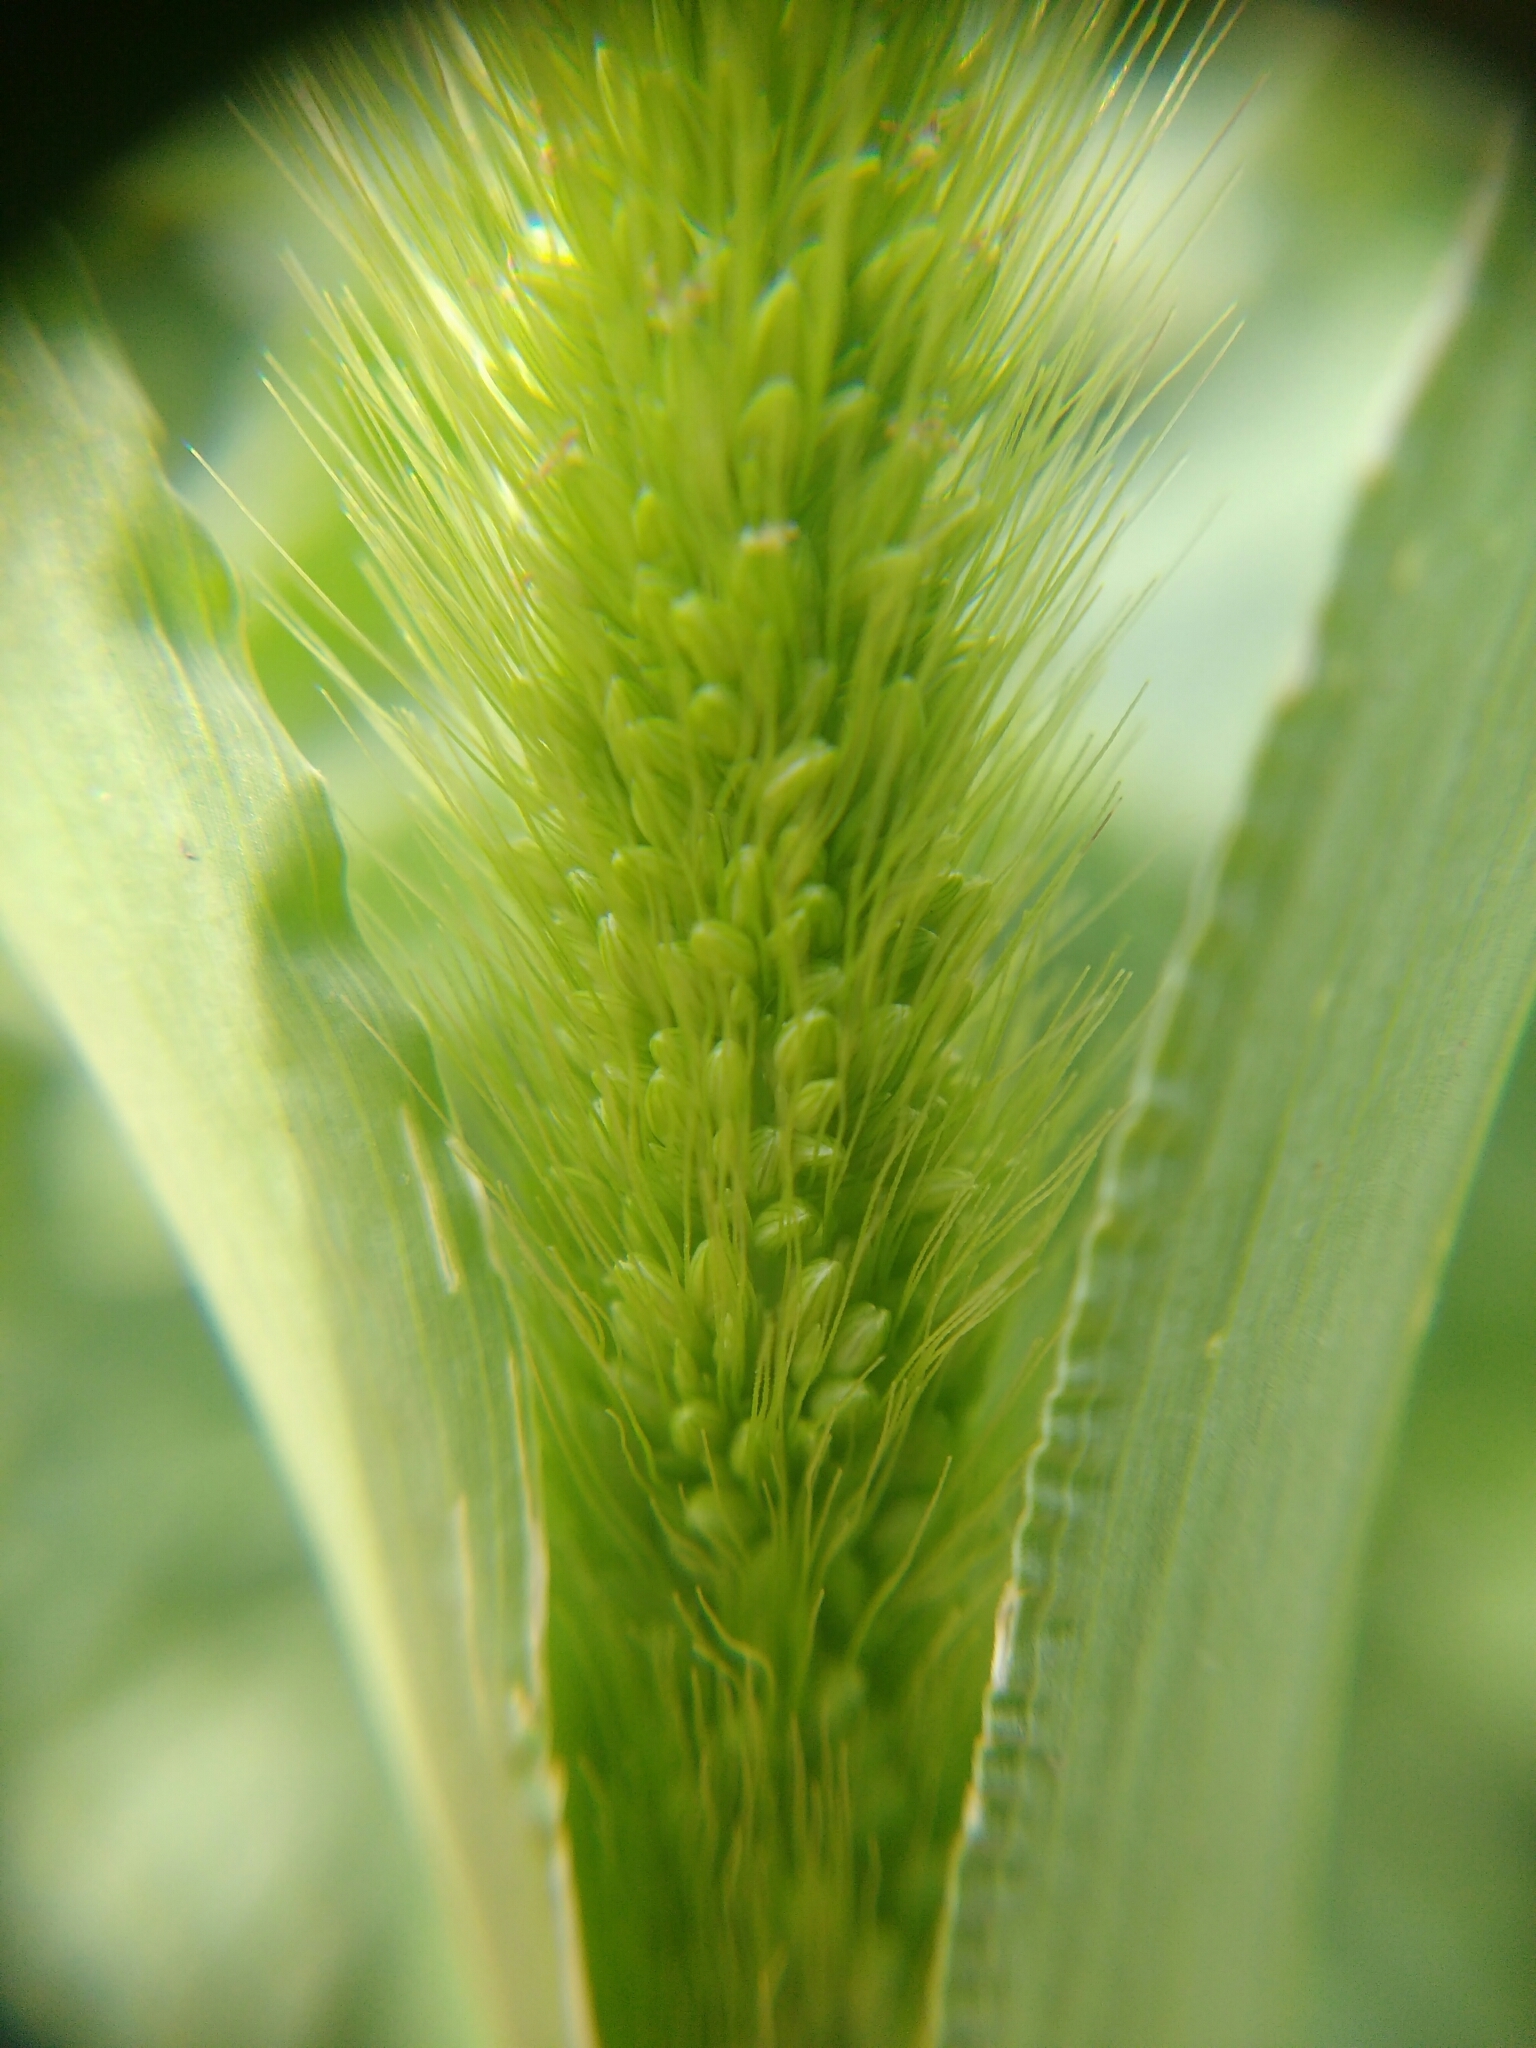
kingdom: Plantae
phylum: Tracheophyta
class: Liliopsida
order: Poales
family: Poaceae
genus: Setaria
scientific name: Setaria viridis
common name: Green bristlegrass
